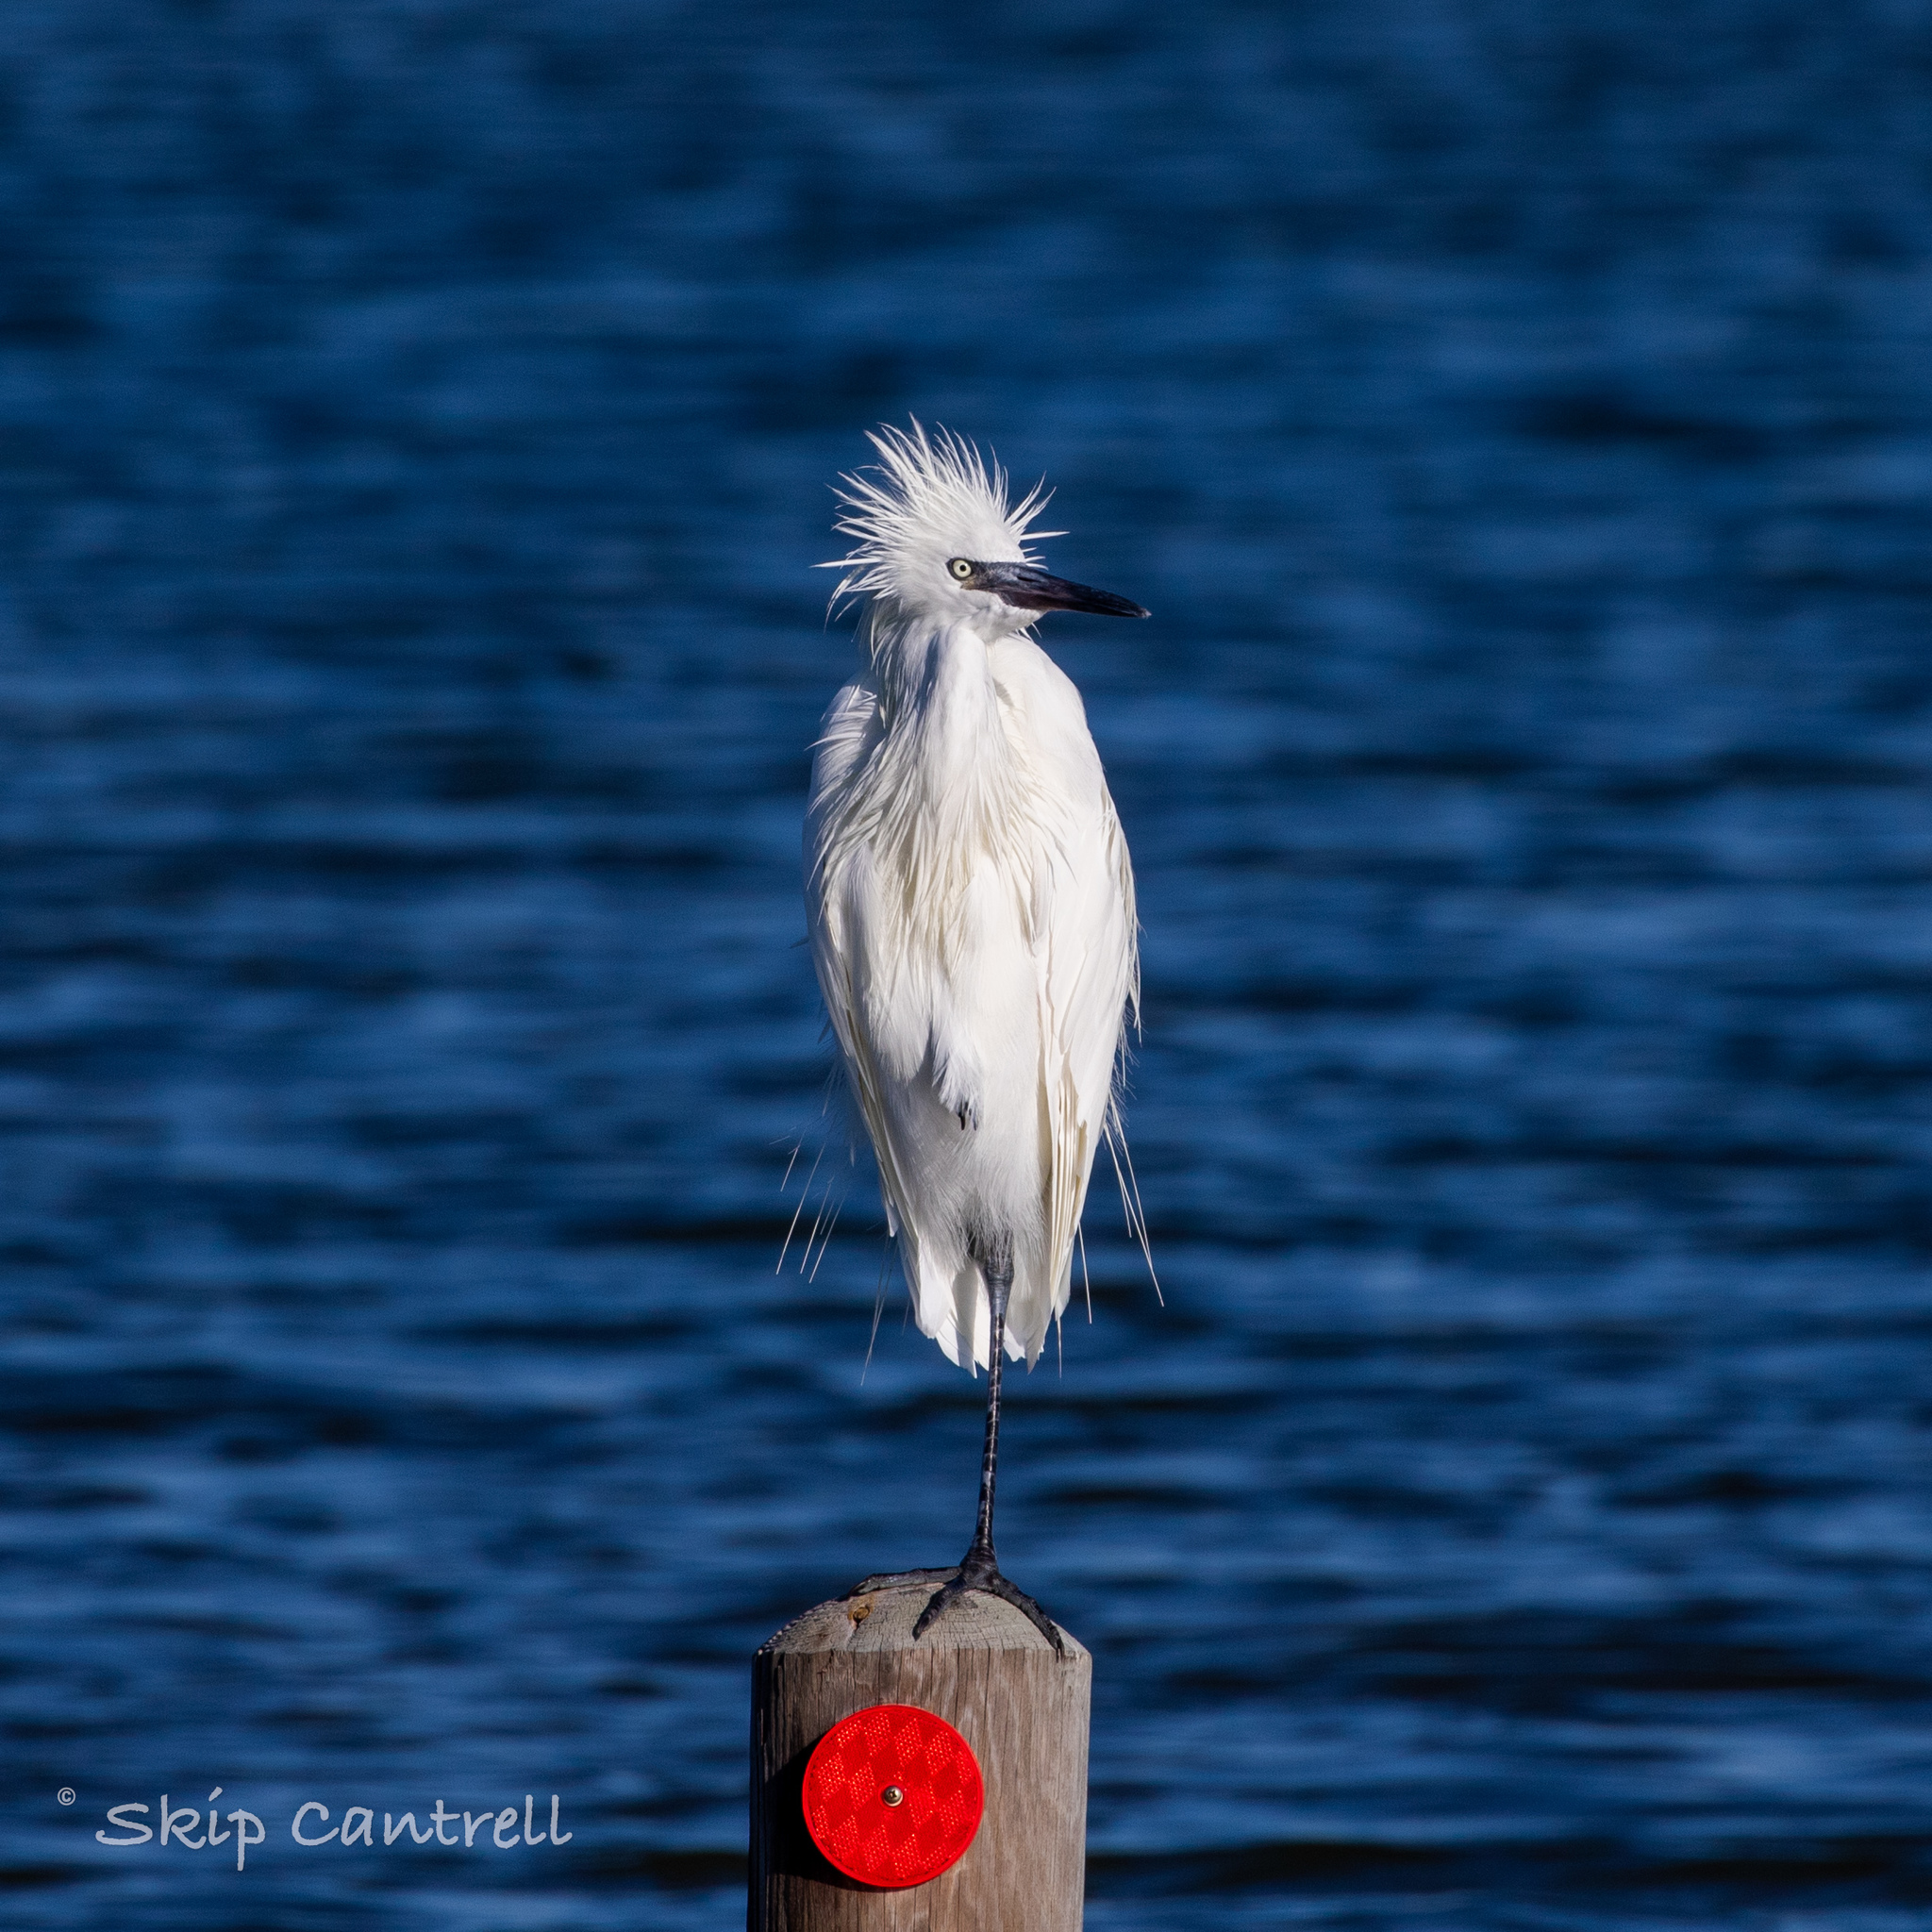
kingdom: Animalia
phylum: Chordata
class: Aves
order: Pelecaniformes
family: Ardeidae
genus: Egretta
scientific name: Egretta rufescens
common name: Reddish egret
